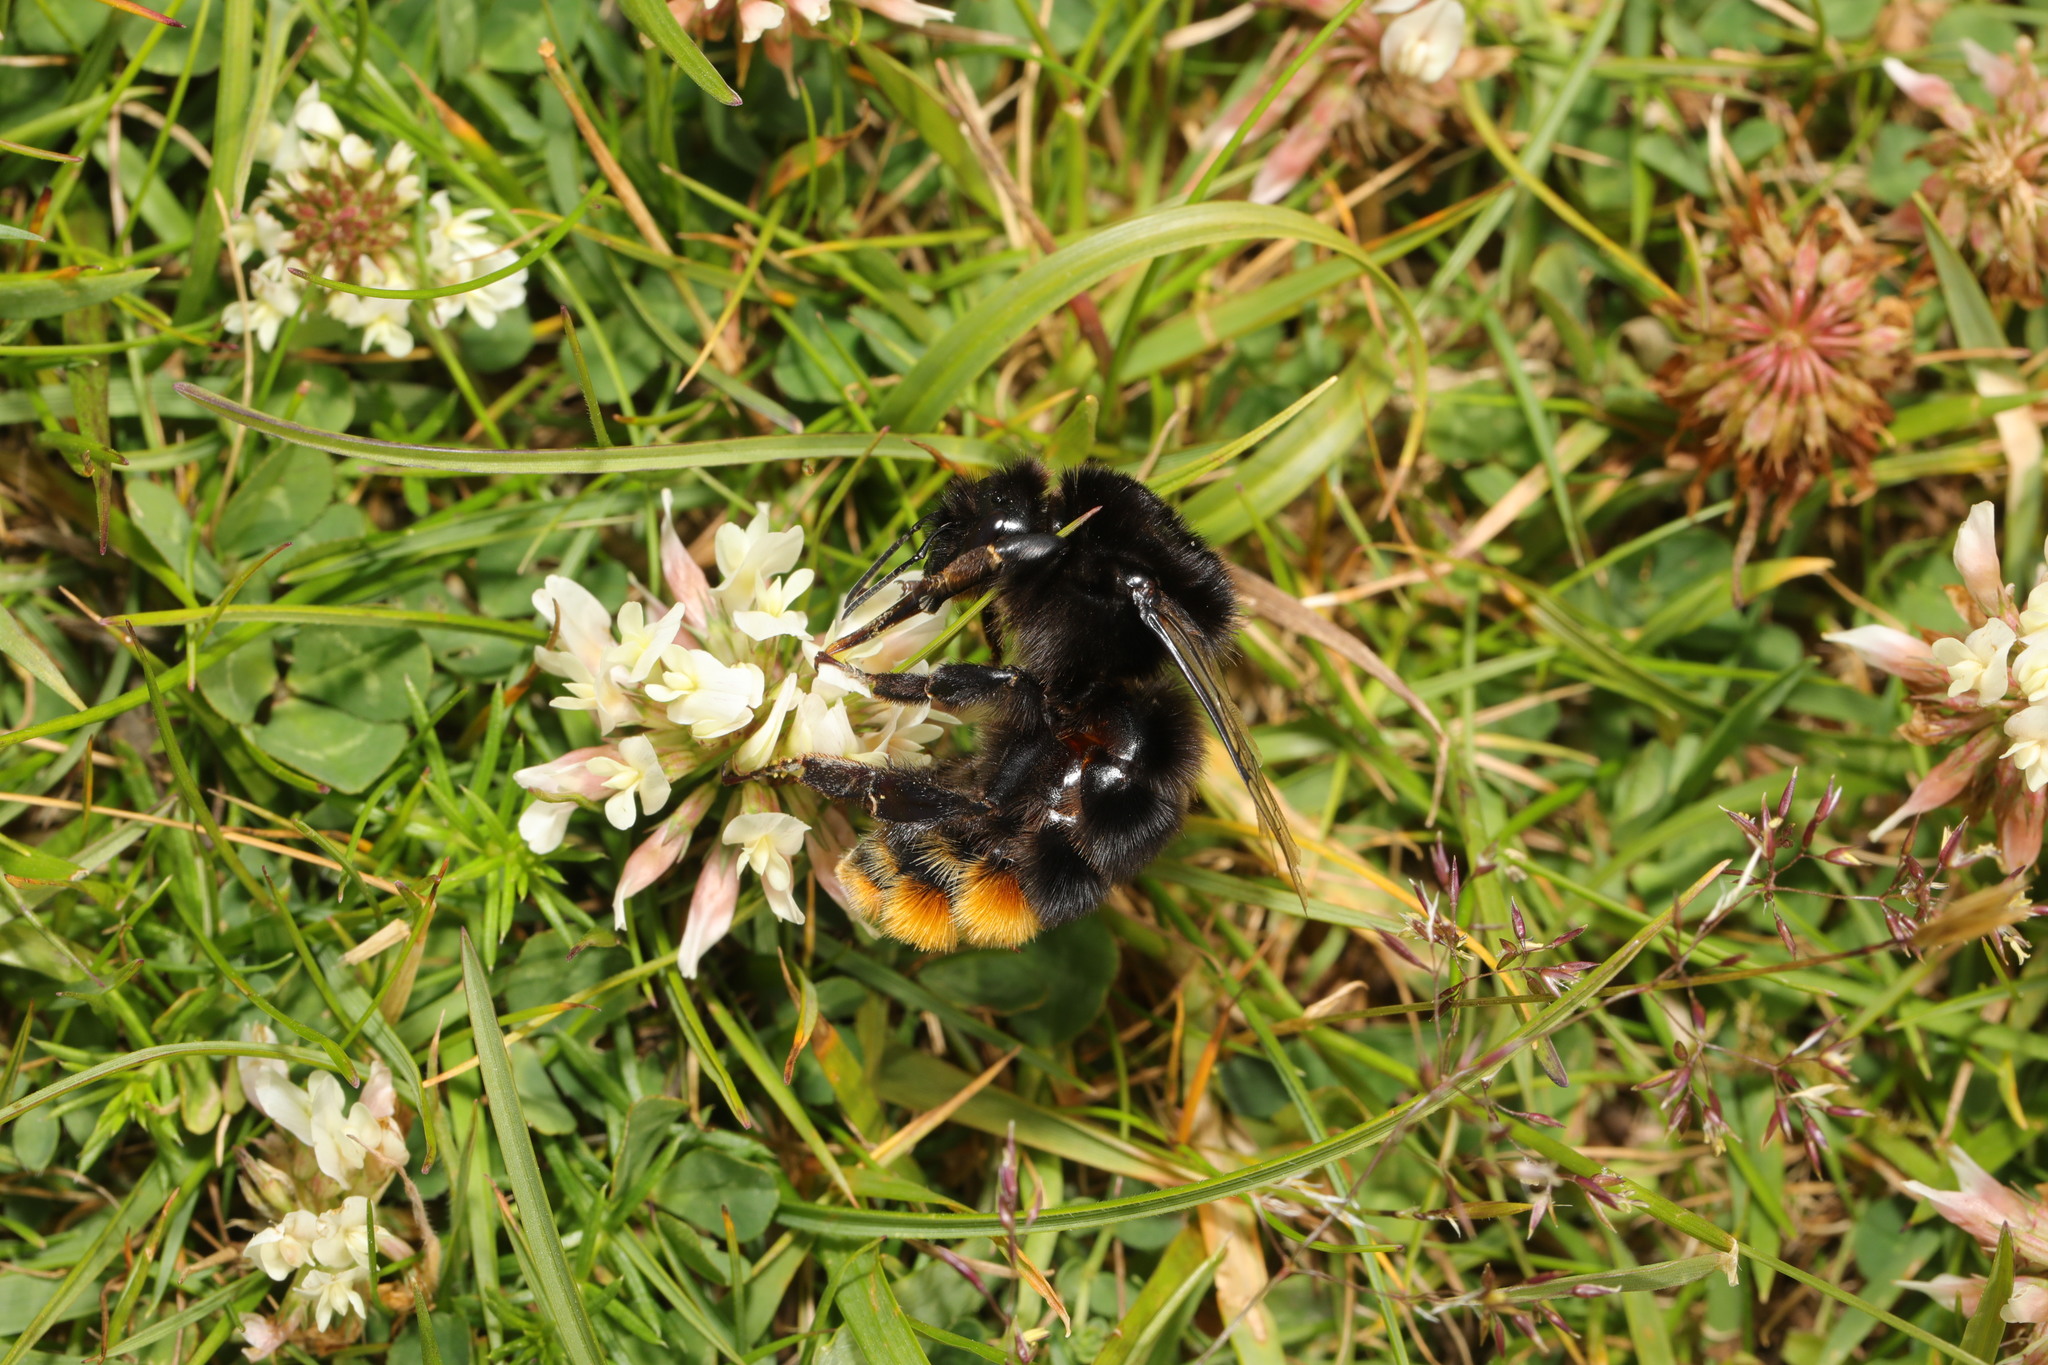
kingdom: Animalia
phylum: Arthropoda
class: Insecta
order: Hymenoptera
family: Apidae
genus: Bombus
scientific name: Bombus lapidarius
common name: Large red-tailed humble-bee
